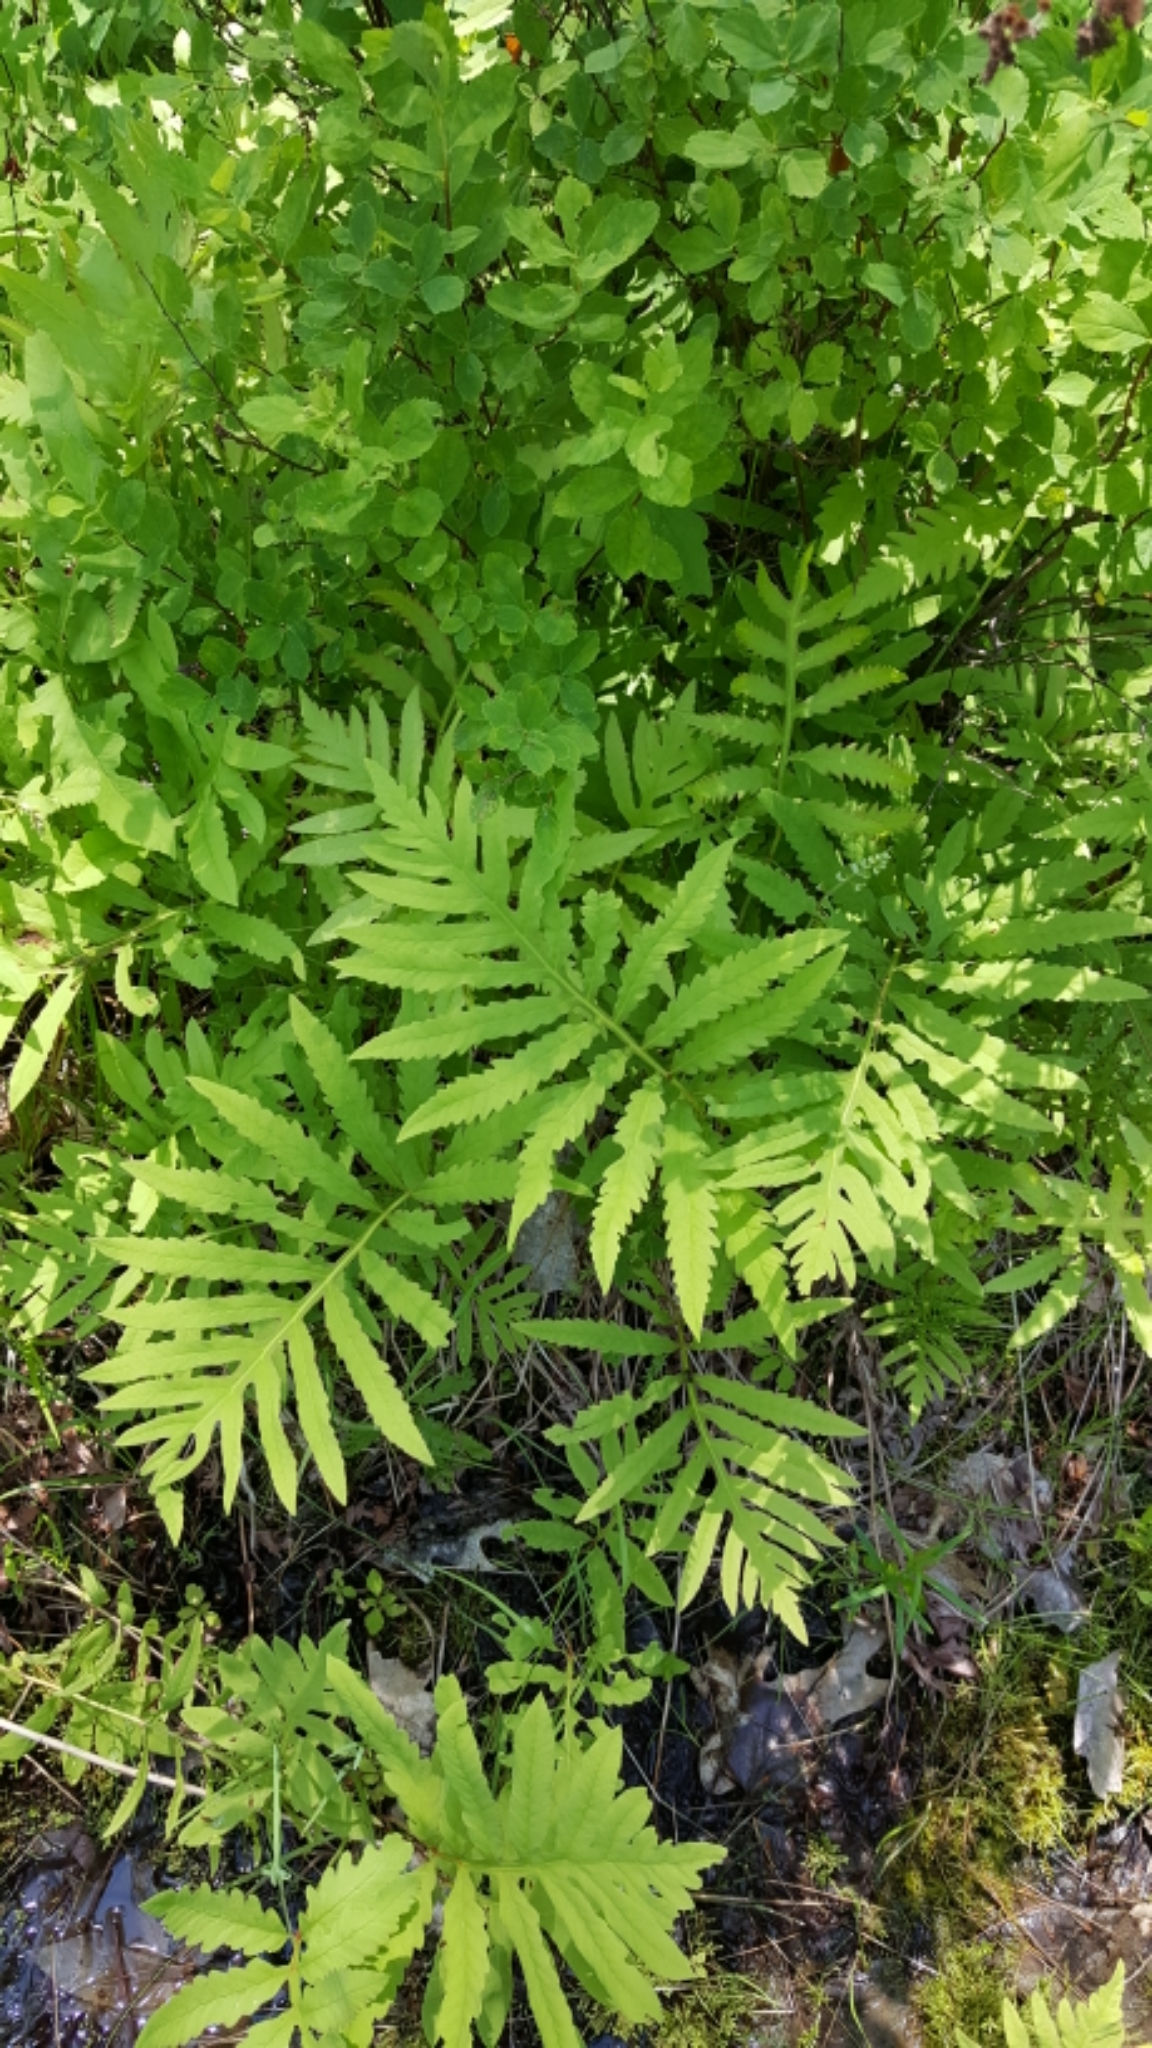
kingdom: Plantae
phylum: Tracheophyta
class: Polypodiopsida
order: Polypodiales
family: Onocleaceae
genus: Onoclea
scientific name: Onoclea sensibilis
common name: Sensitive fern
